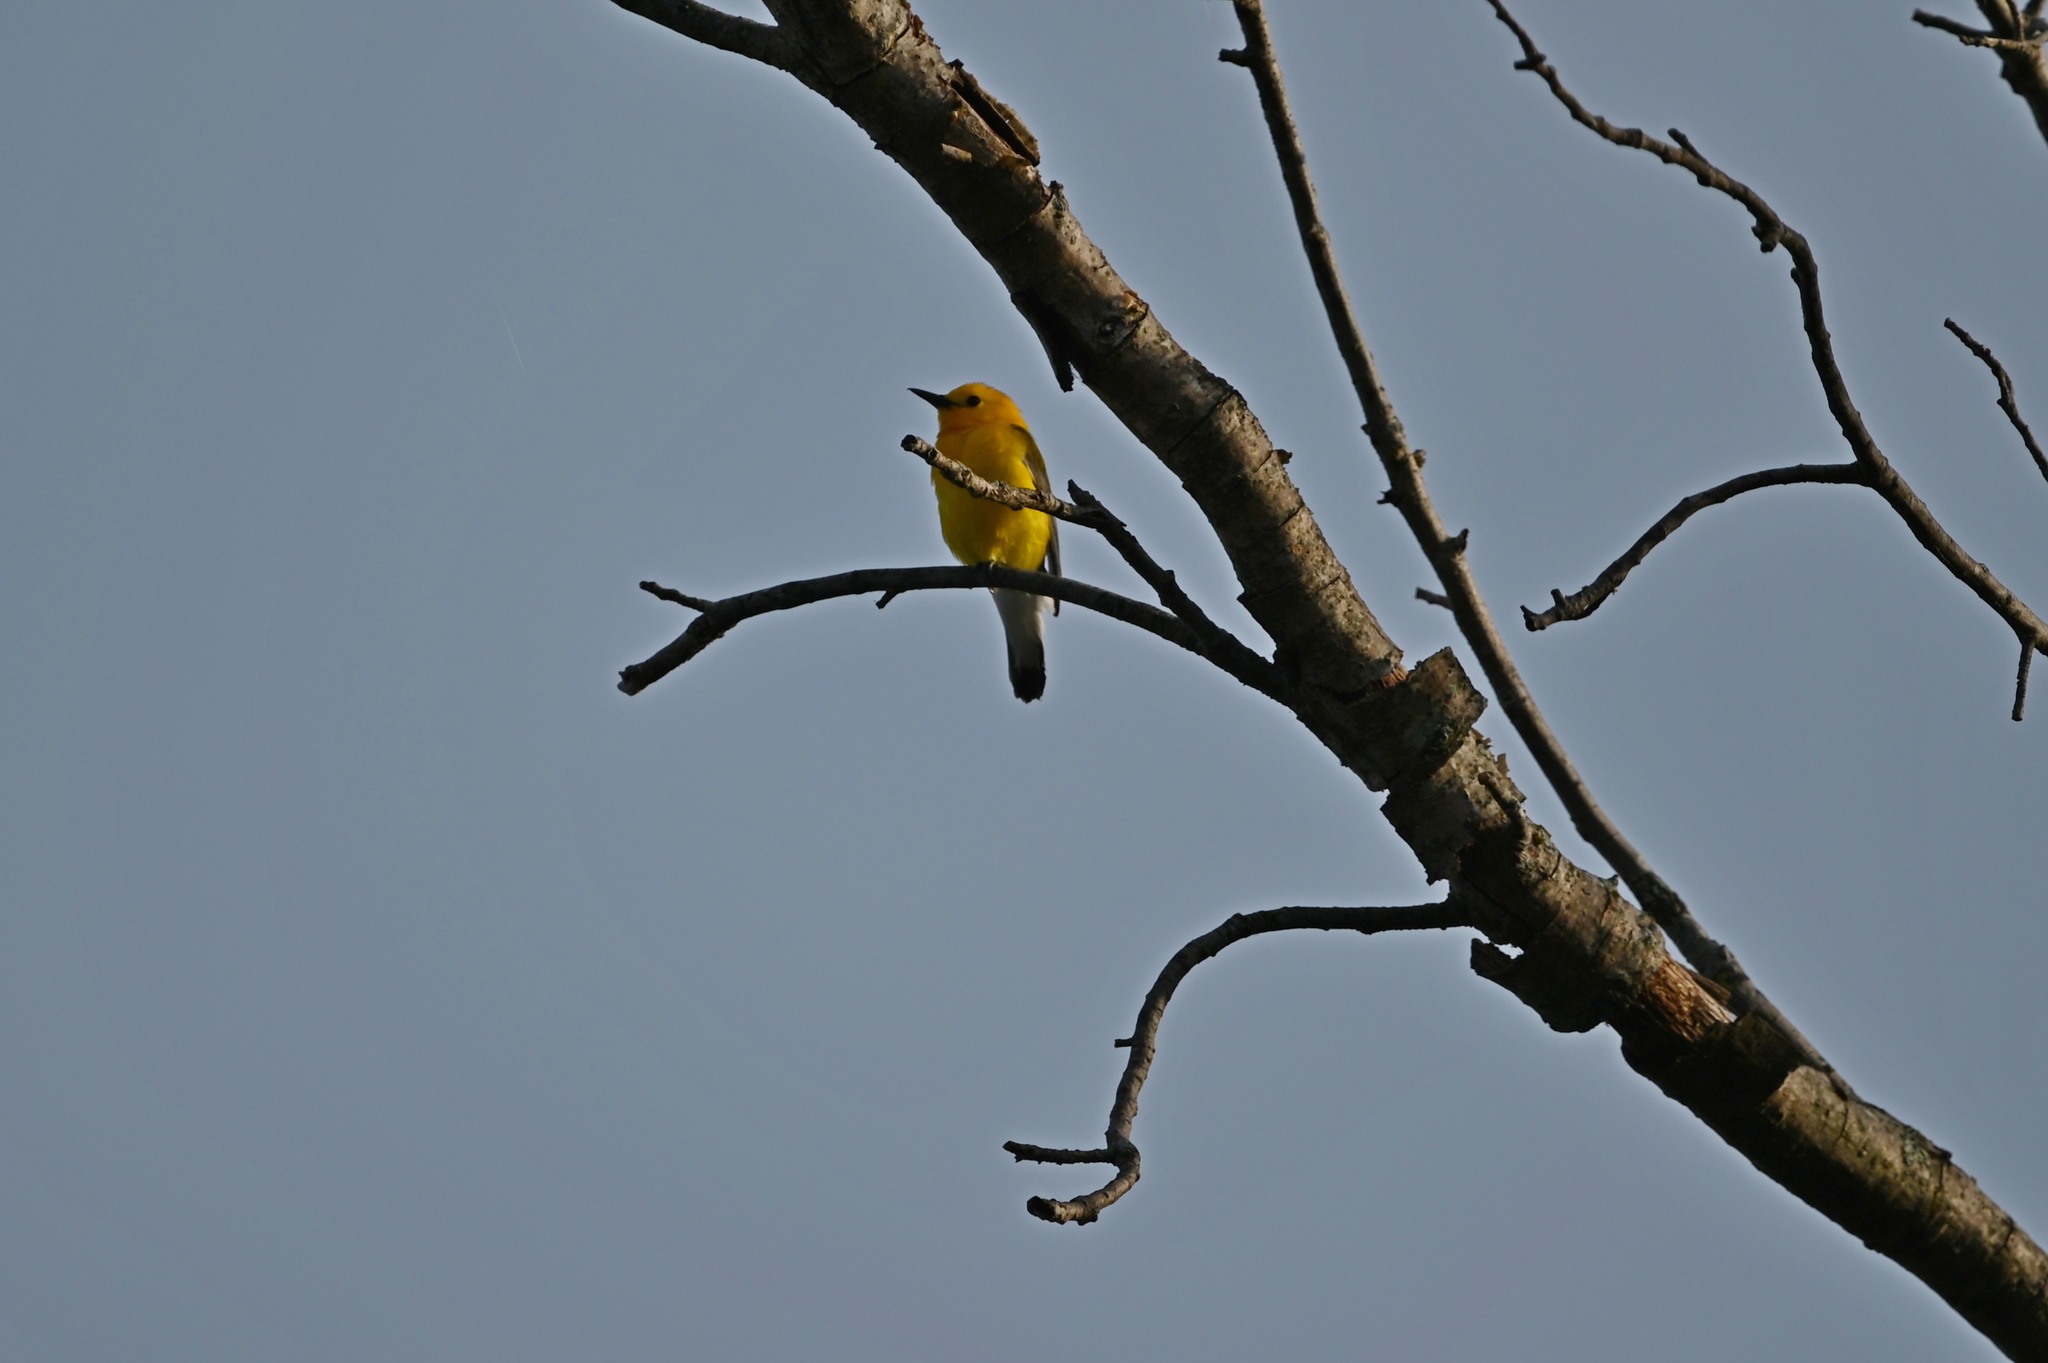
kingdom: Animalia
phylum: Chordata
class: Aves
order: Passeriformes
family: Parulidae
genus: Protonotaria
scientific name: Protonotaria citrea
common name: Prothonotary warbler
